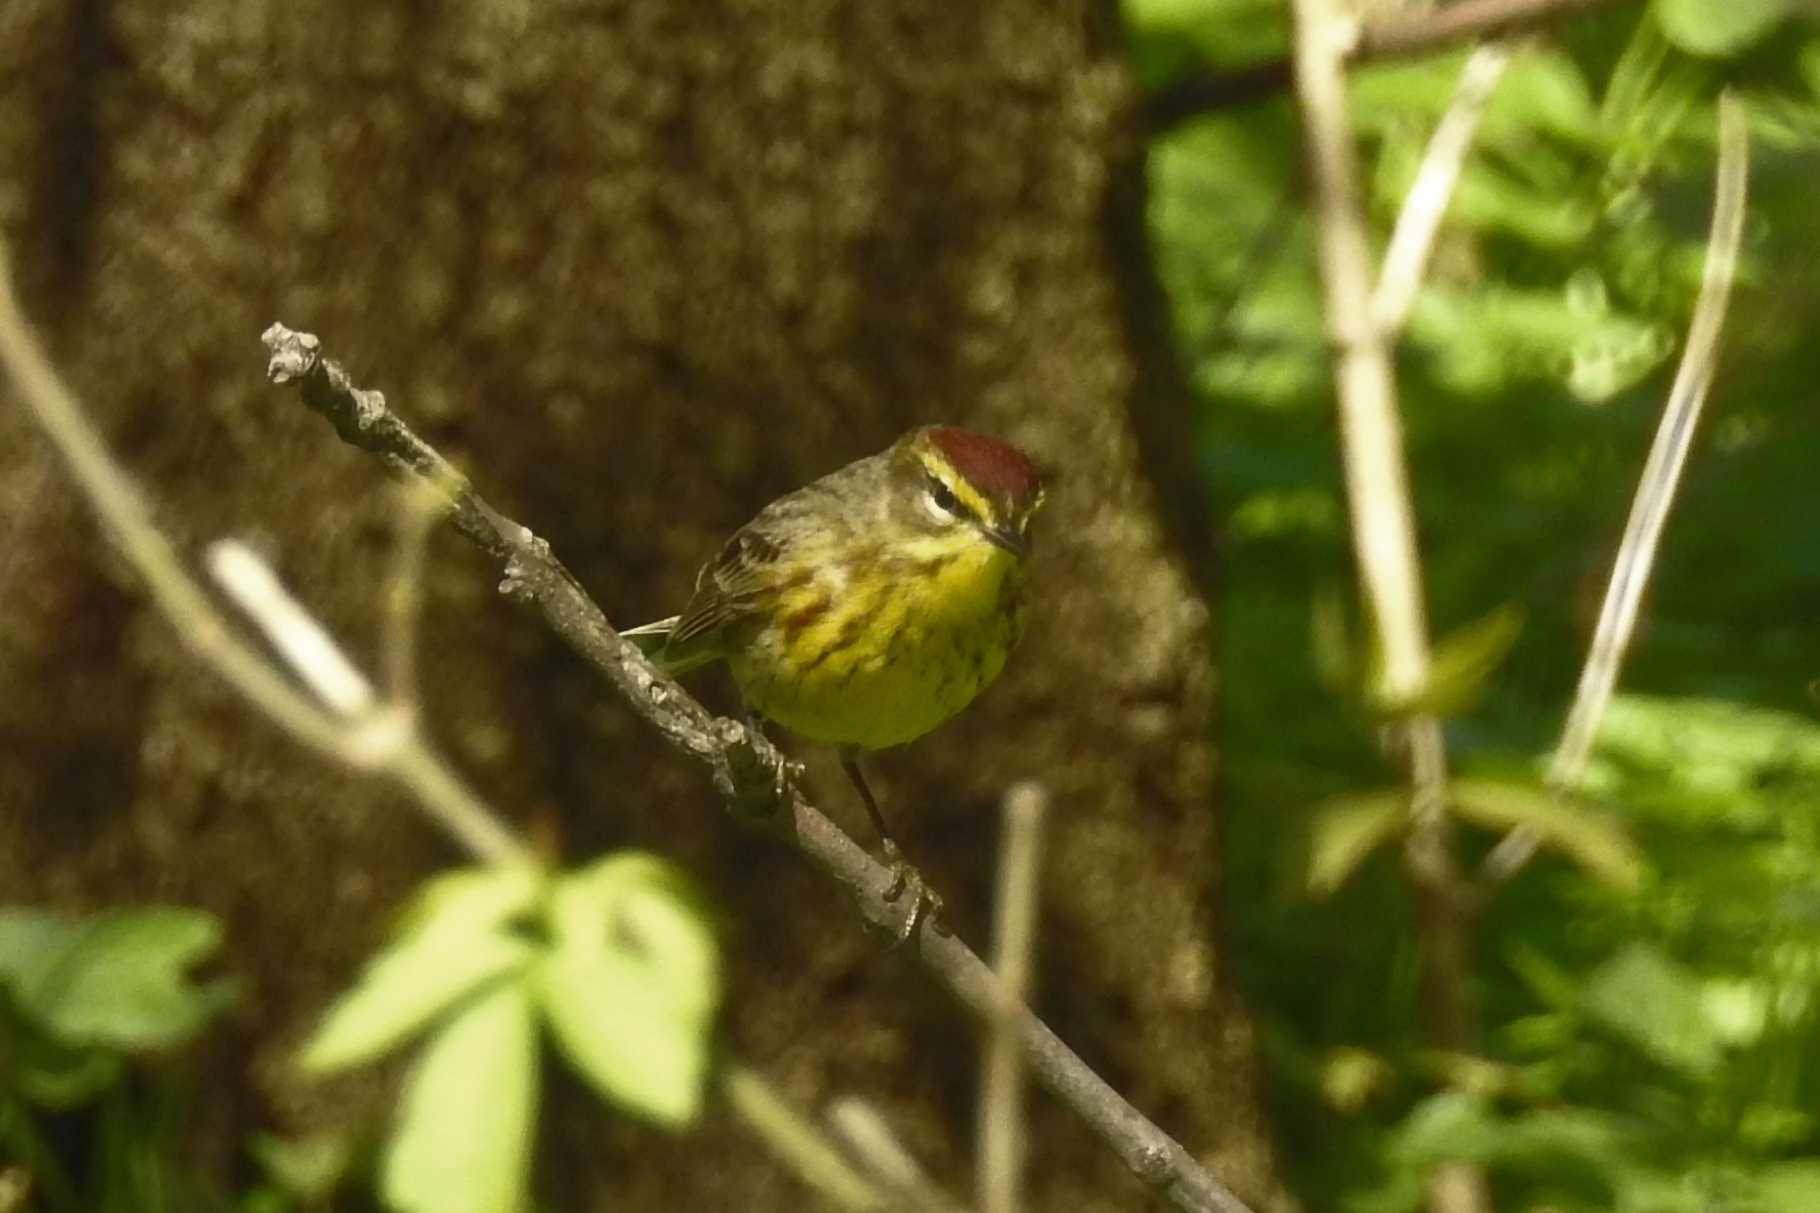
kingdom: Animalia
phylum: Chordata
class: Aves
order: Passeriformes
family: Parulidae
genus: Setophaga
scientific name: Setophaga palmarum
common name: Palm warbler
